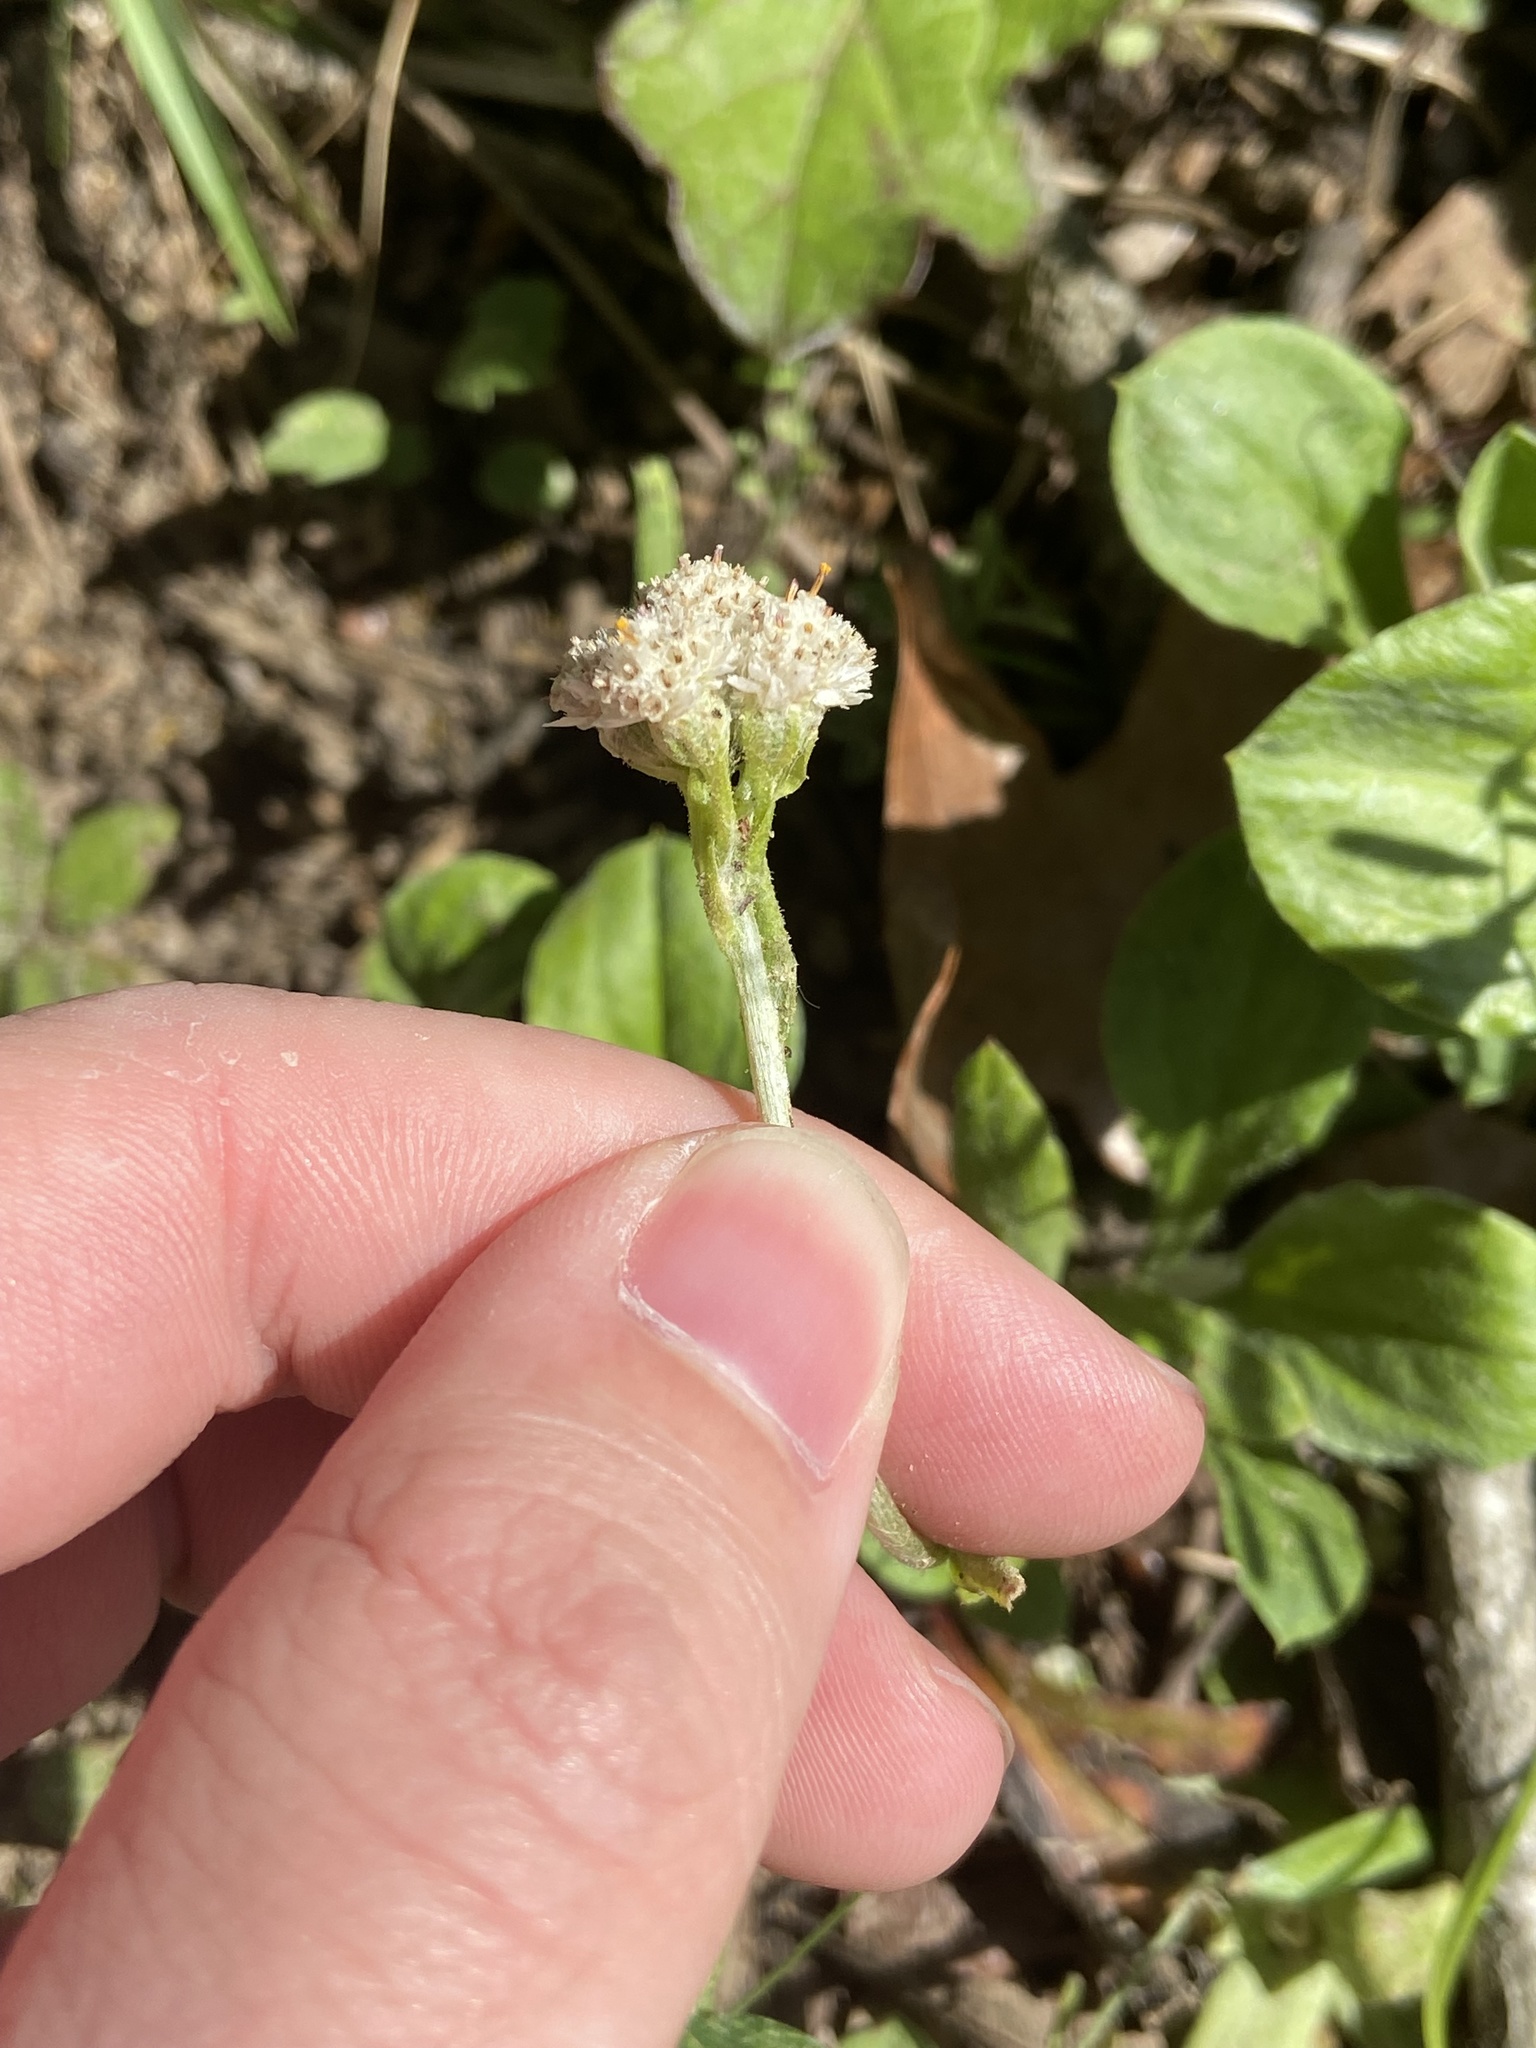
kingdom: Plantae
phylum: Tracheophyta
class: Magnoliopsida
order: Asterales
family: Asteraceae
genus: Antennaria
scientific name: Antennaria parlinii
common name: Parlin's pussytoes
